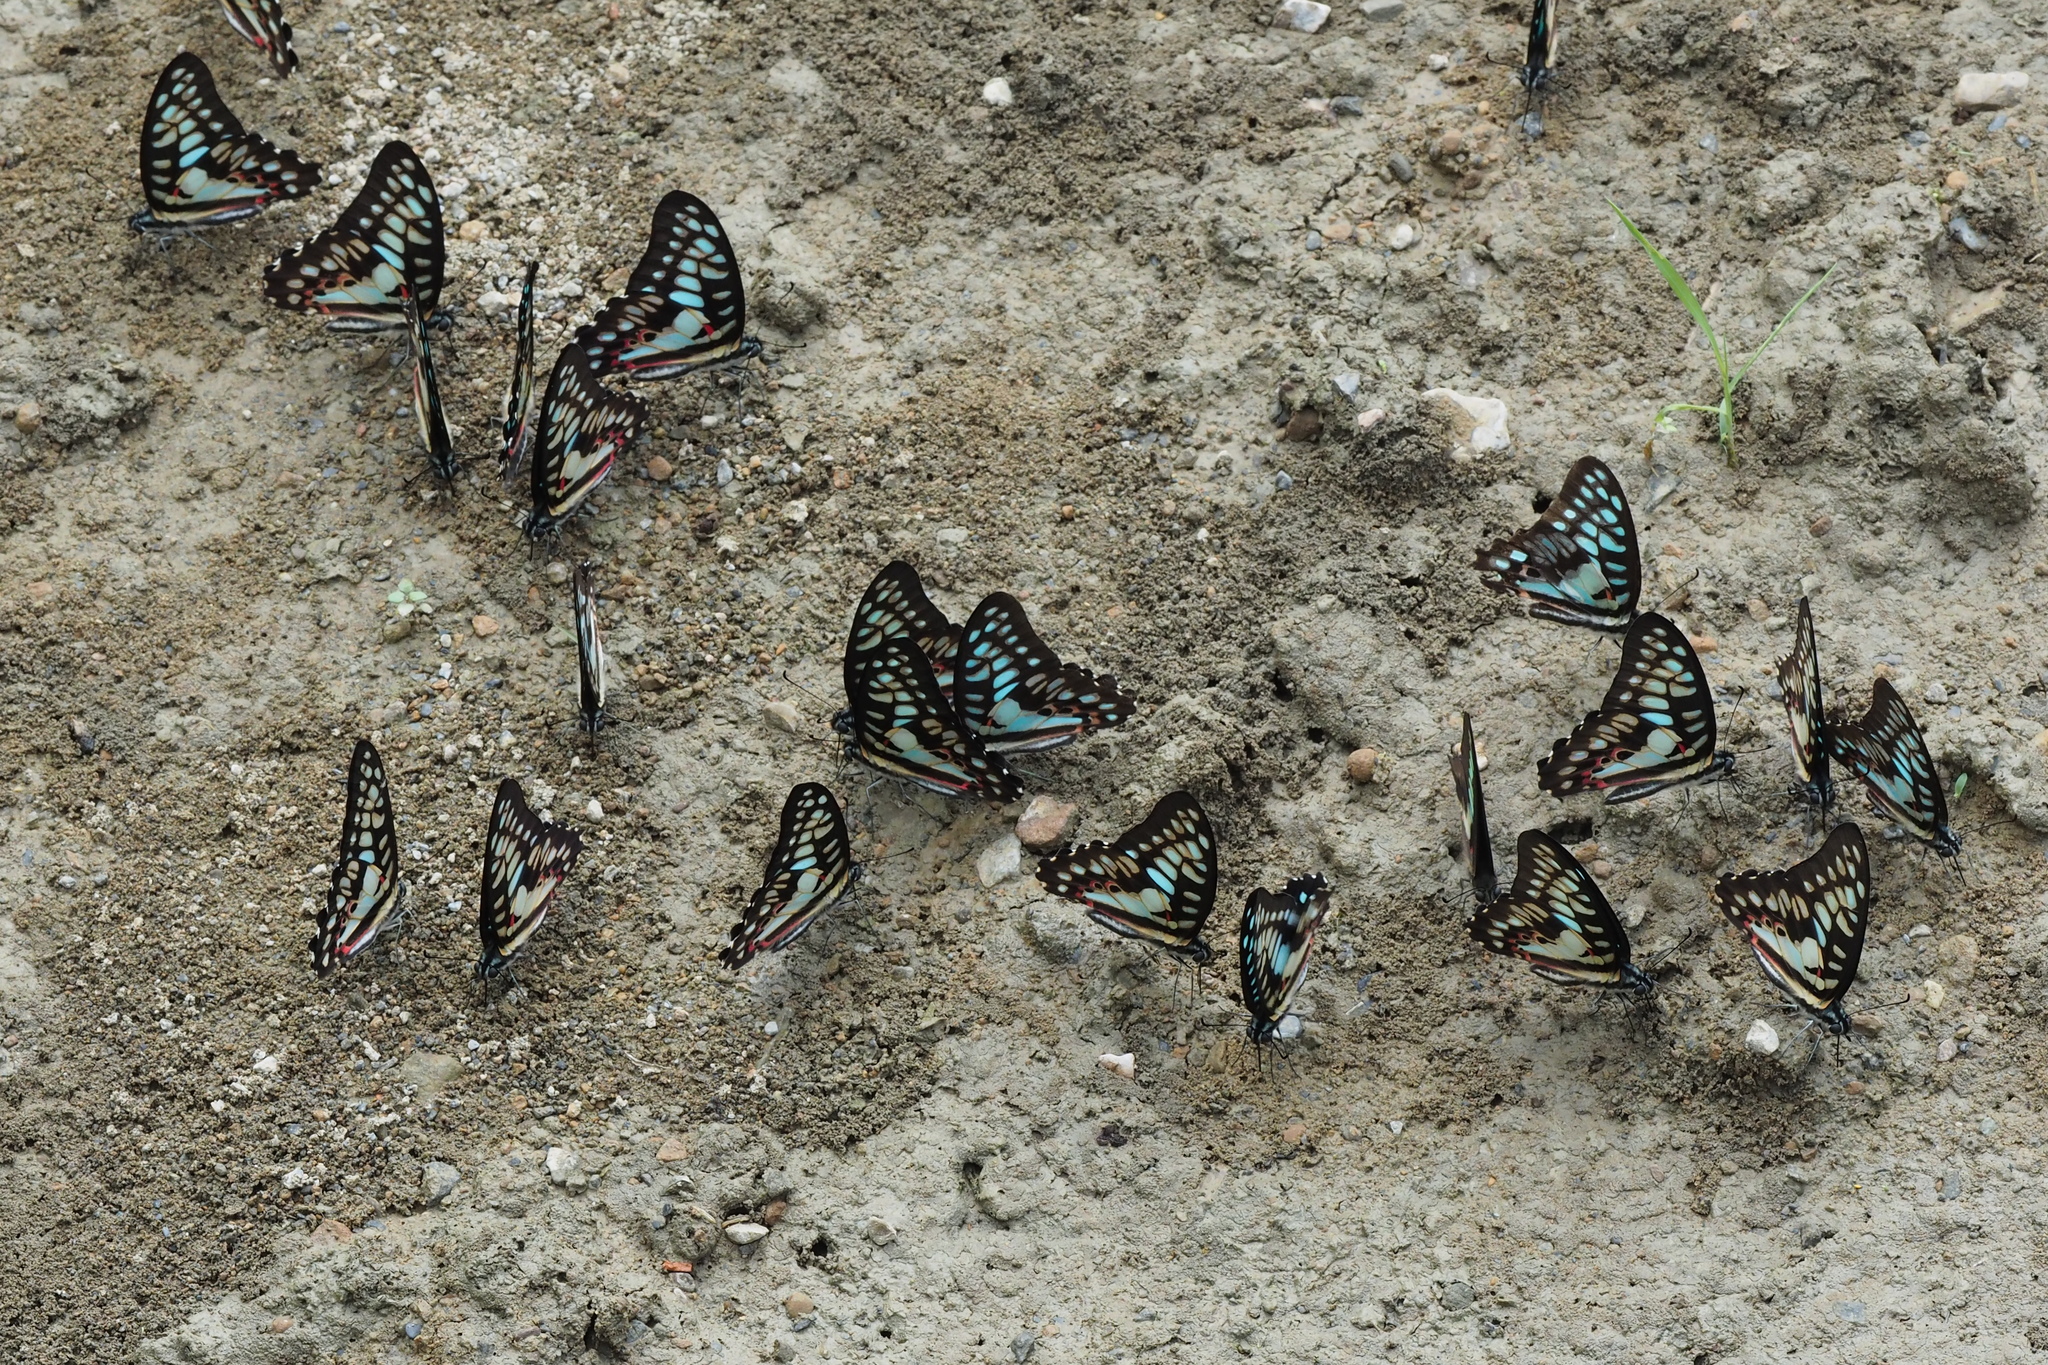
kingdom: Animalia
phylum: Arthropoda
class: Insecta
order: Lepidoptera
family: Papilionidae
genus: Graphium
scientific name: Graphium doson
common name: Common jay
